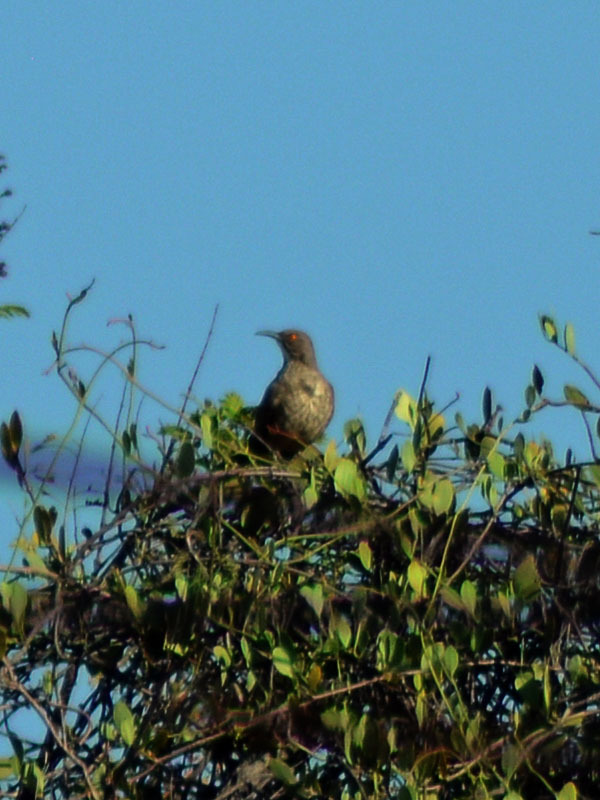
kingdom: Animalia
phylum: Chordata
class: Aves
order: Passeriformes
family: Mimidae
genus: Toxostoma
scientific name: Toxostoma curvirostre
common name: Curve-billed thrasher
